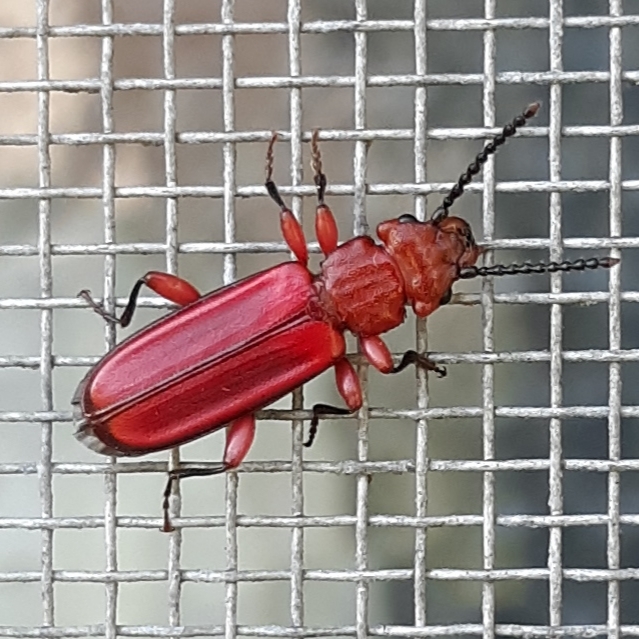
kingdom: Animalia
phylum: Arthropoda
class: Insecta
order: Coleoptera
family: Cucujidae
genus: Cucujus
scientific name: Cucujus clavipes
